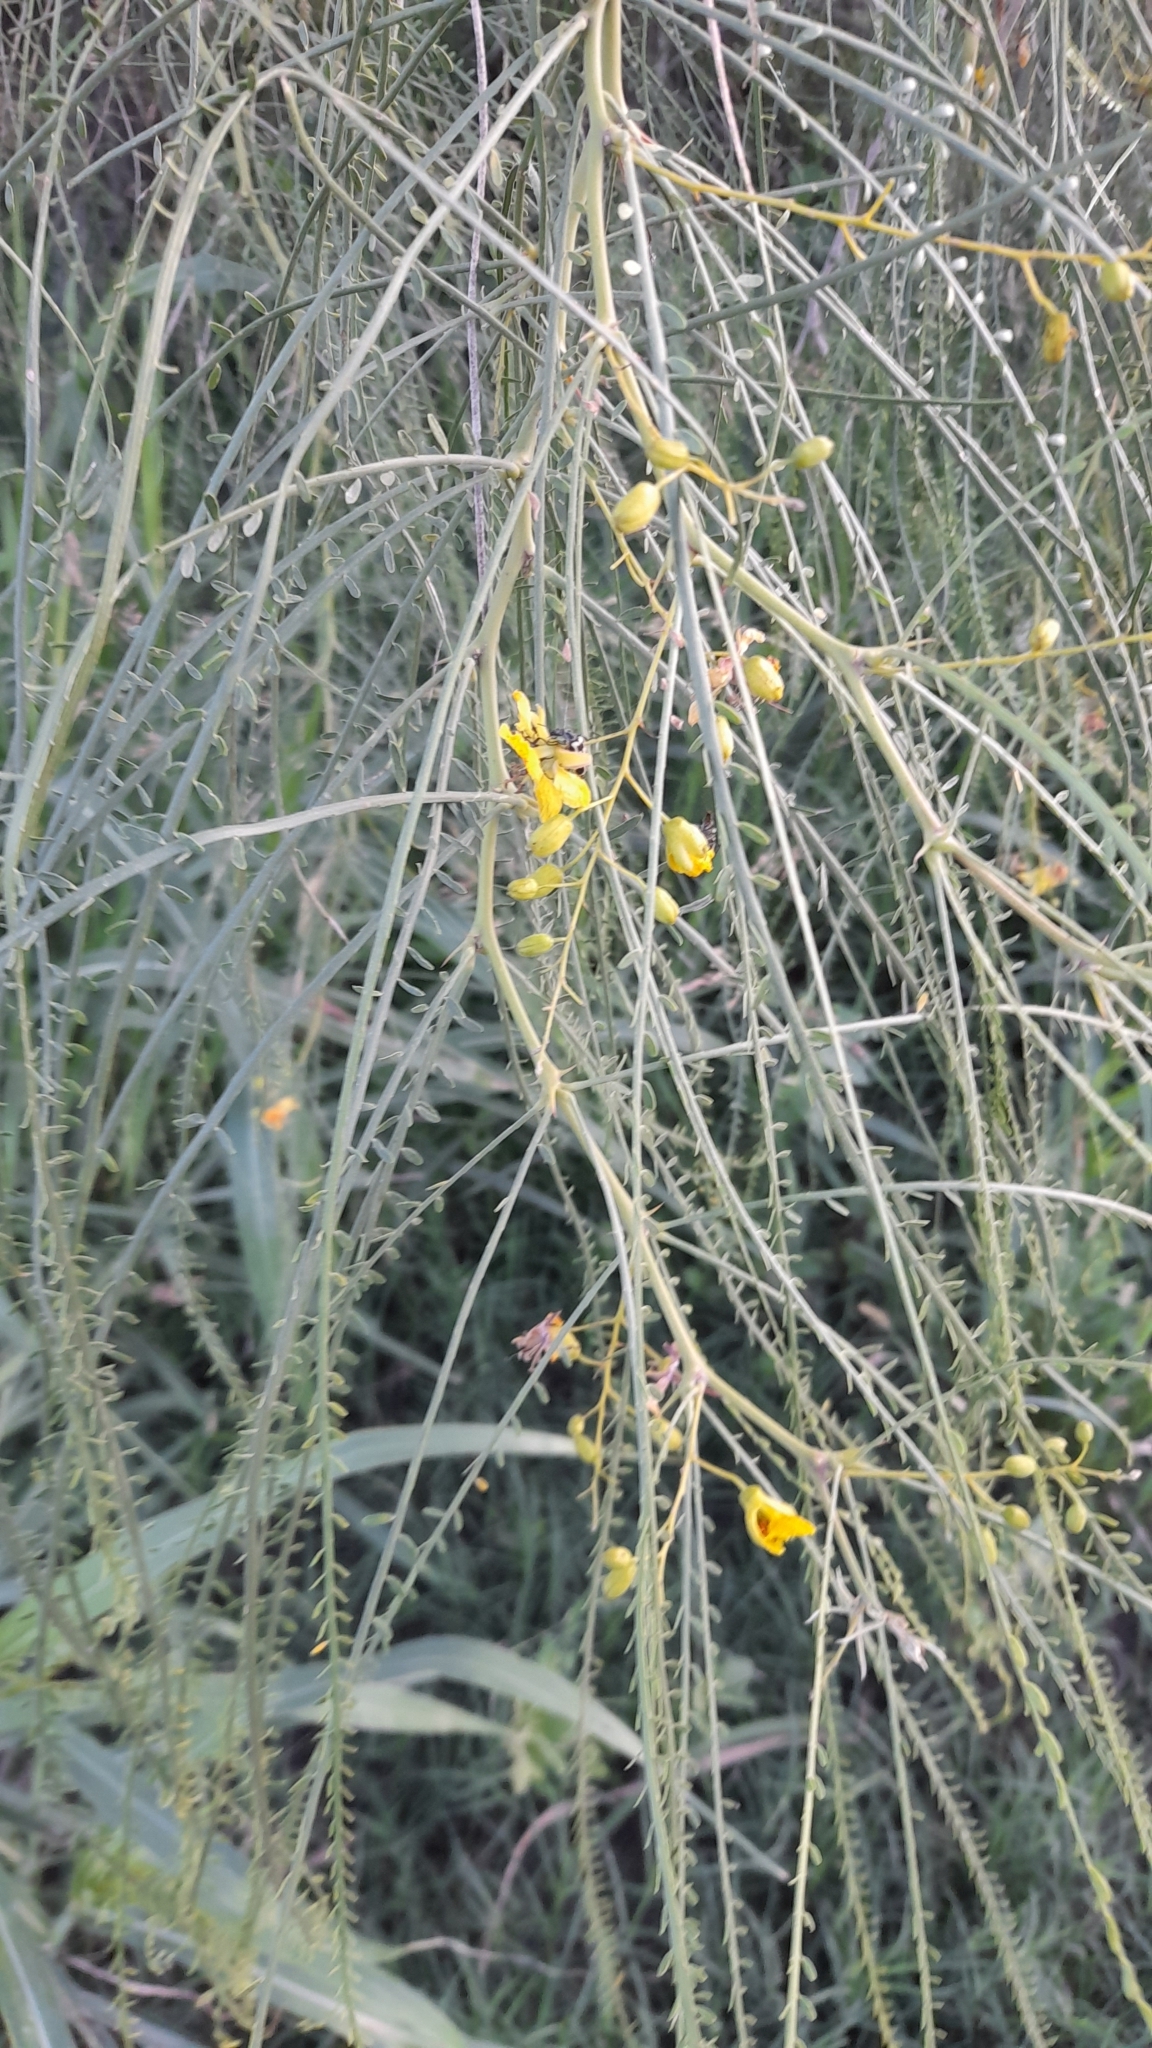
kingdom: Plantae
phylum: Tracheophyta
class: Magnoliopsida
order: Fabales
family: Fabaceae
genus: Parkinsonia
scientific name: Parkinsonia aculeata
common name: Jerusalem thorn
